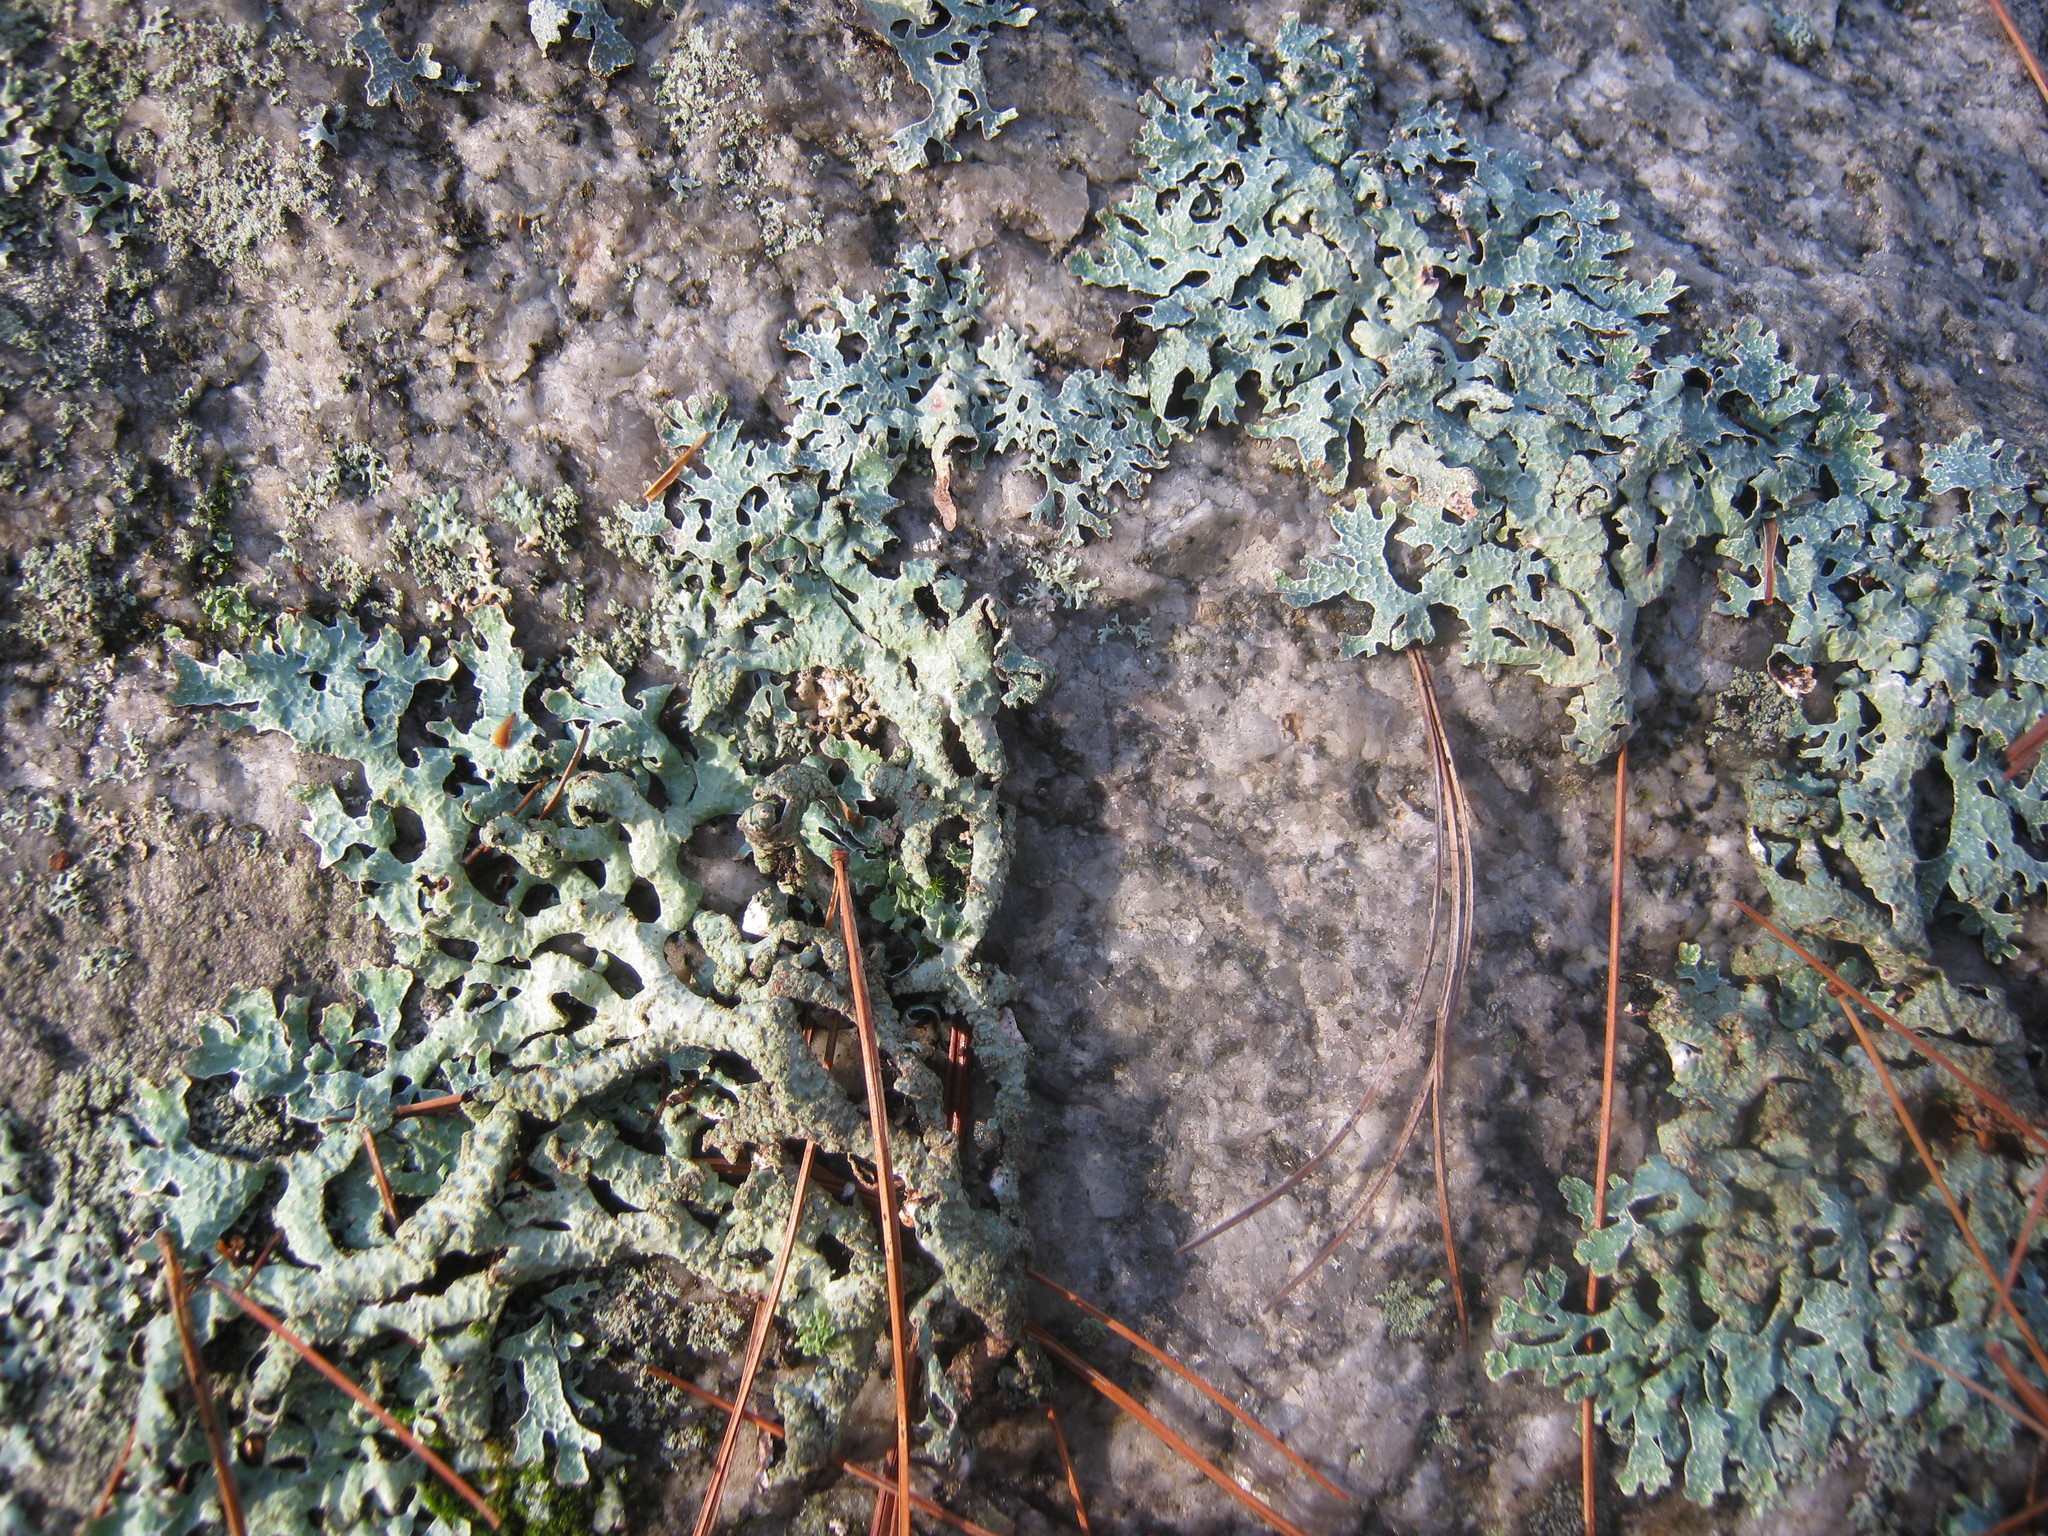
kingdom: Fungi
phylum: Ascomycota
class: Lecanoromycetes
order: Lecanorales
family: Parmeliaceae
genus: Parmelia
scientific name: Parmelia sulcata
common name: Netted shield lichen
